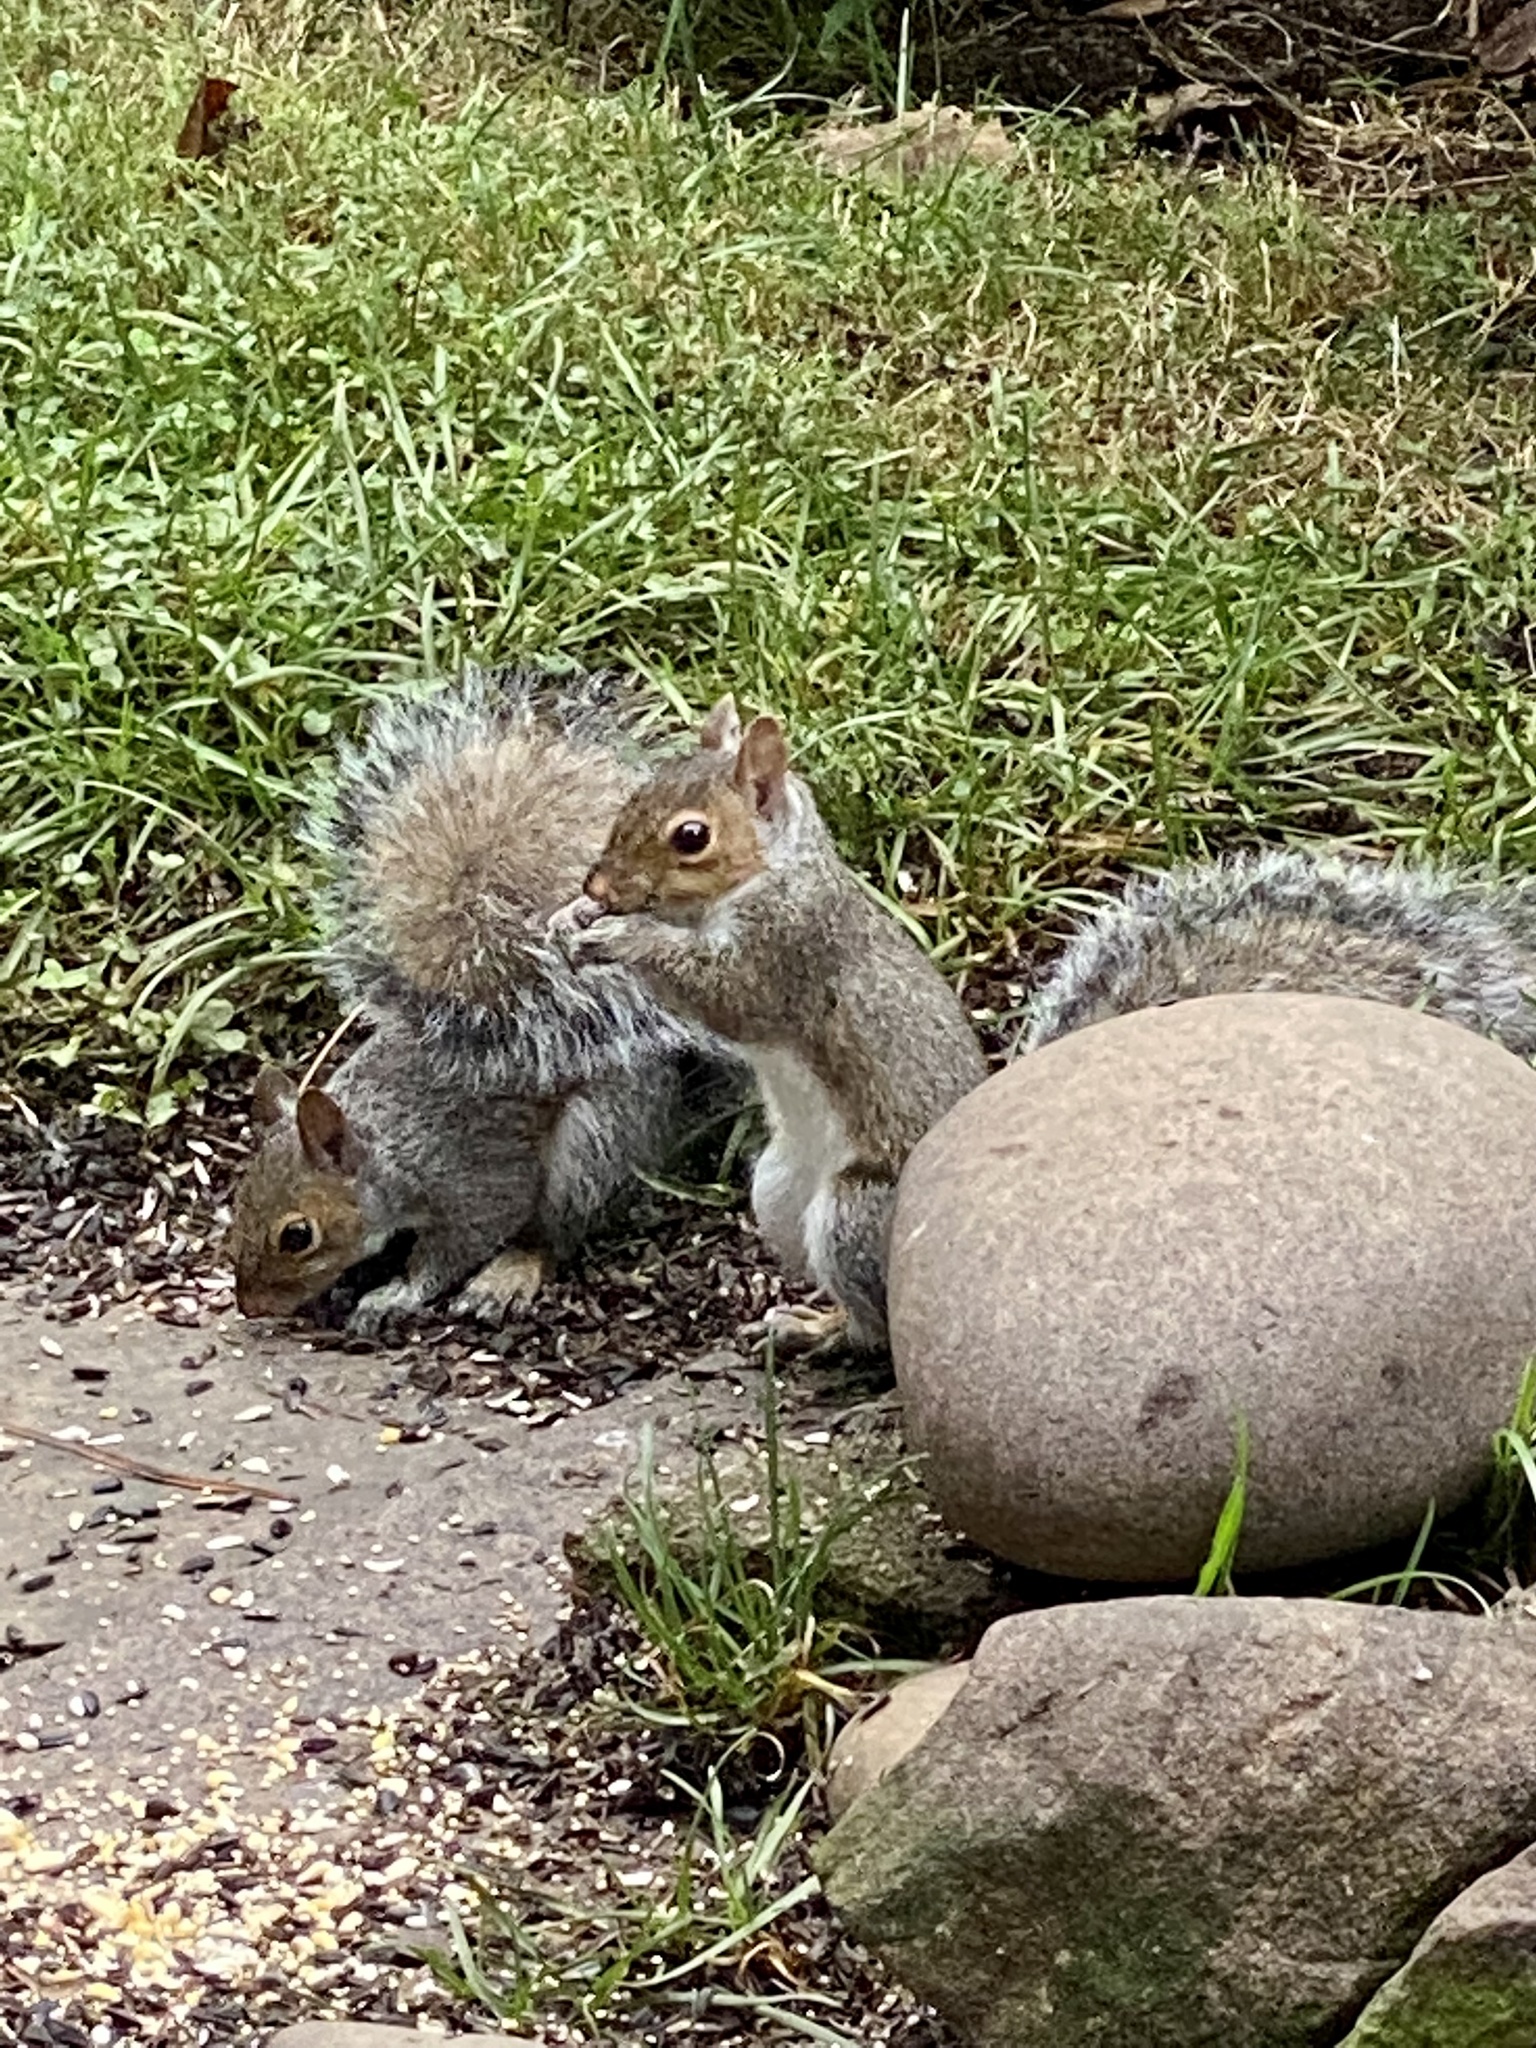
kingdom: Animalia
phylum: Chordata
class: Mammalia
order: Rodentia
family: Sciuridae
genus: Sciurus
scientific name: Sciurus carolinensis
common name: Eastern gray squirrel
